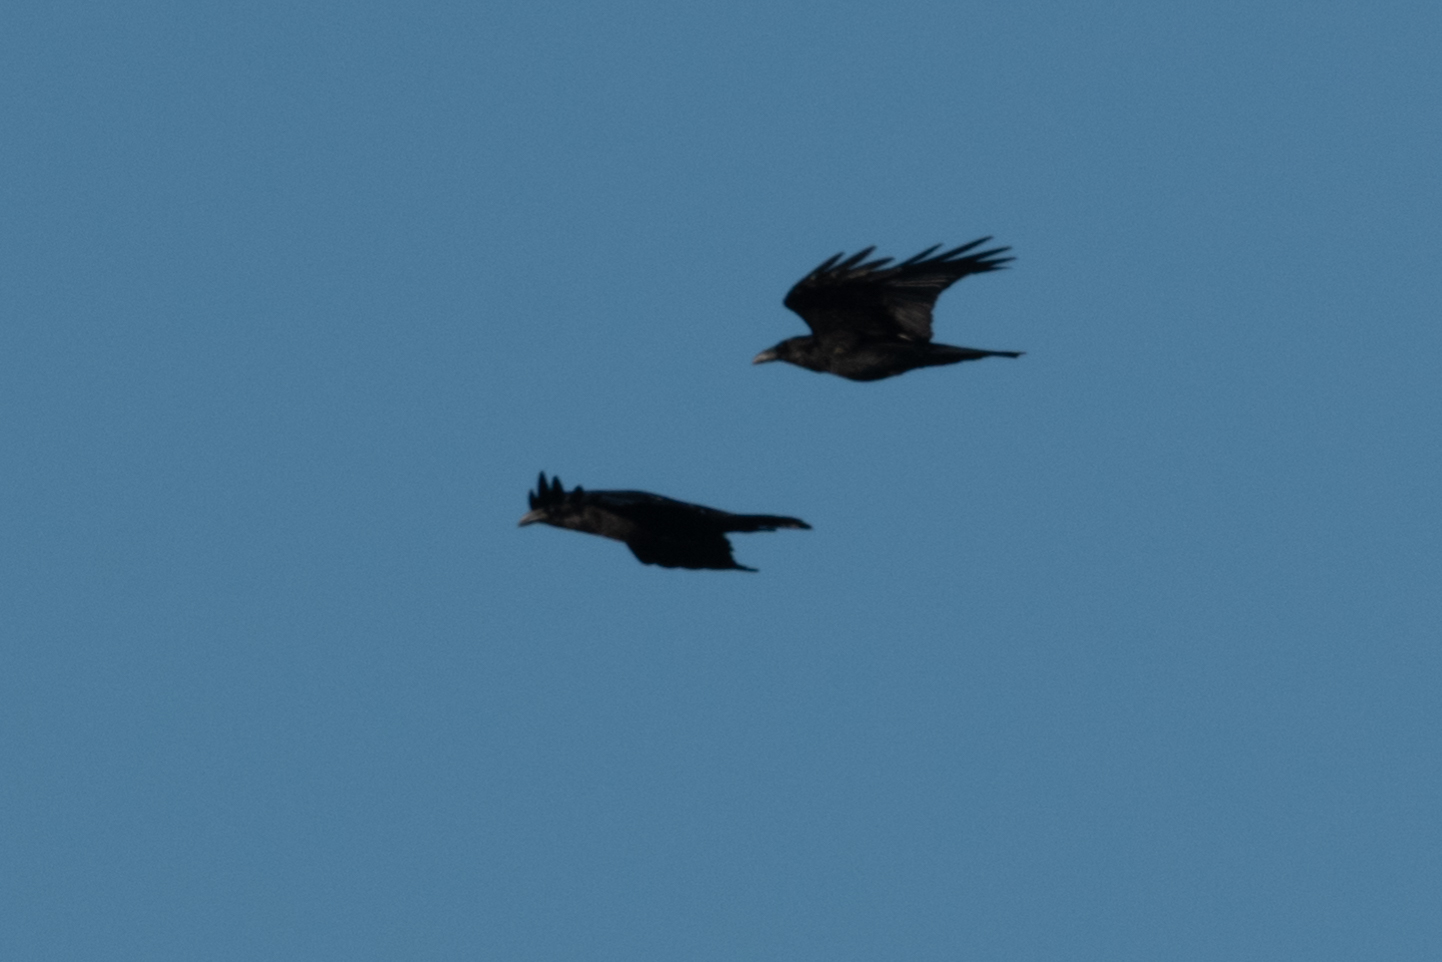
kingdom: Animalia
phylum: Chordata
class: Aves
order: Passeriformes
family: Corvidae
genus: Corvus
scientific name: Corvus corax
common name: Common raven
